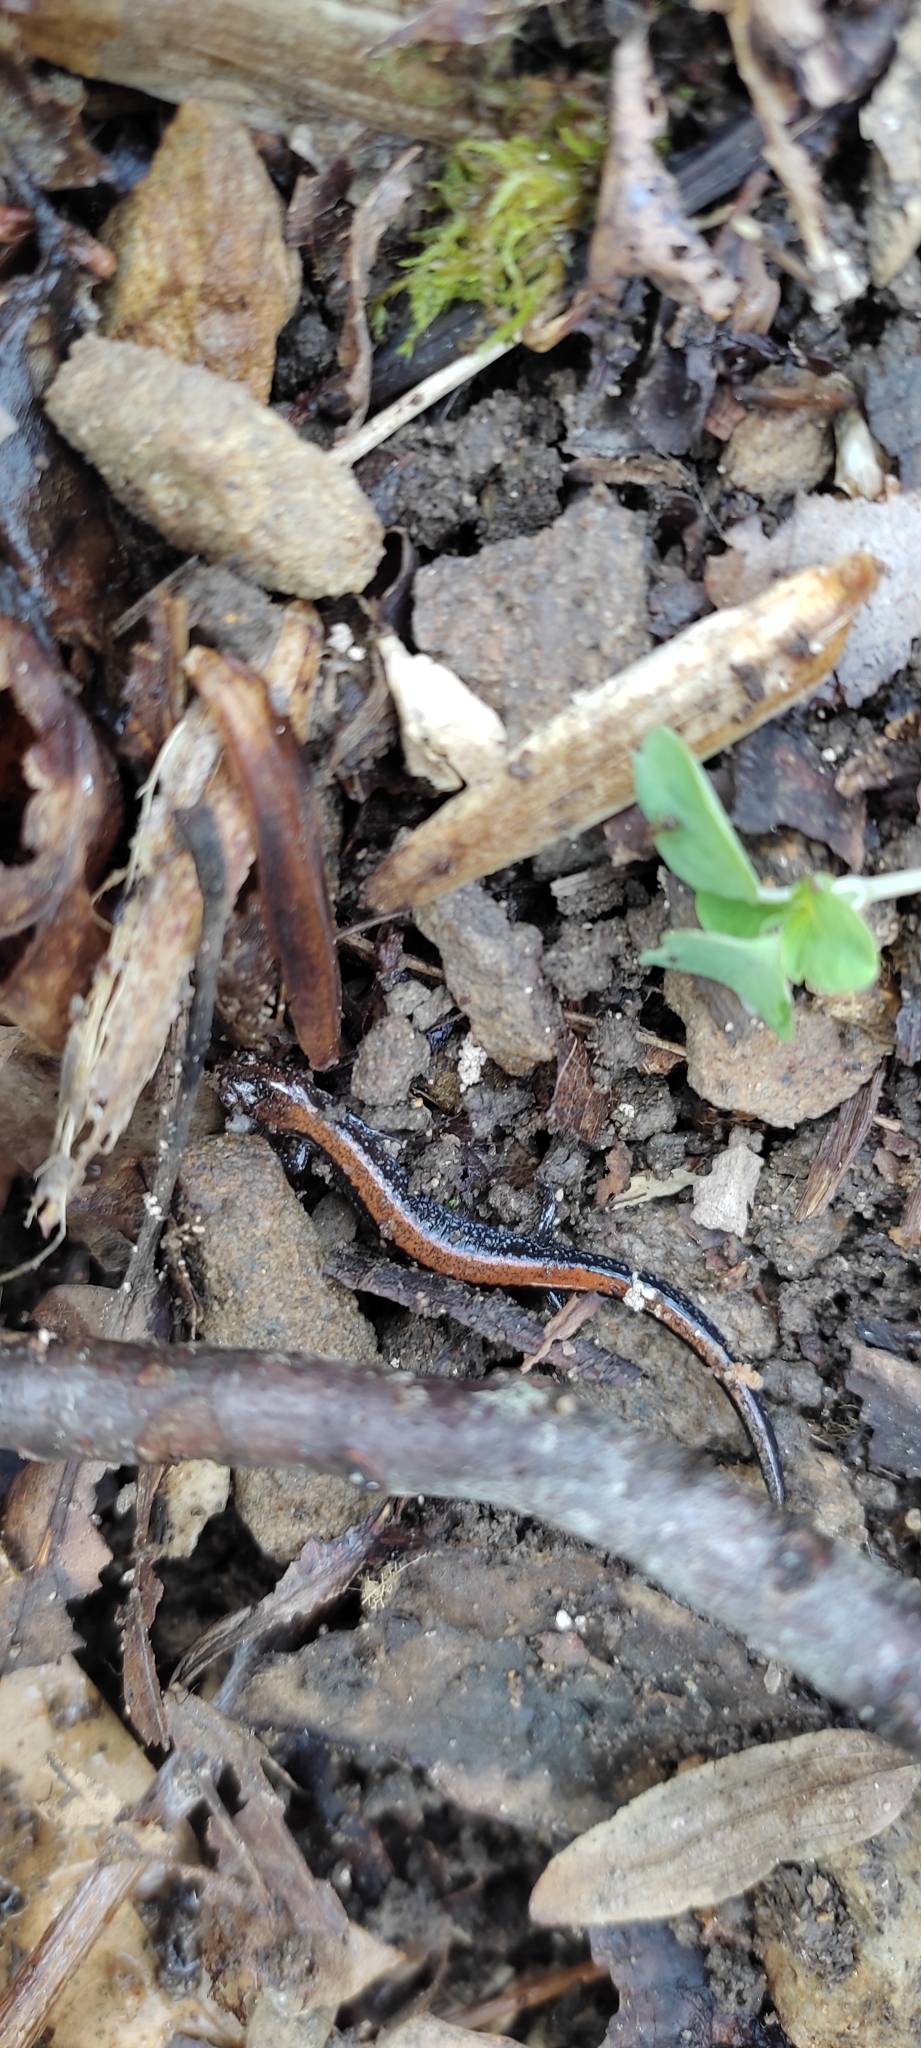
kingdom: Animalia
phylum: Chordata
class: Amphibia
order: Caudata
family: Plethodontidae
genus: Plethodon
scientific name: Plethodon cinereus
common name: Redback salamander
